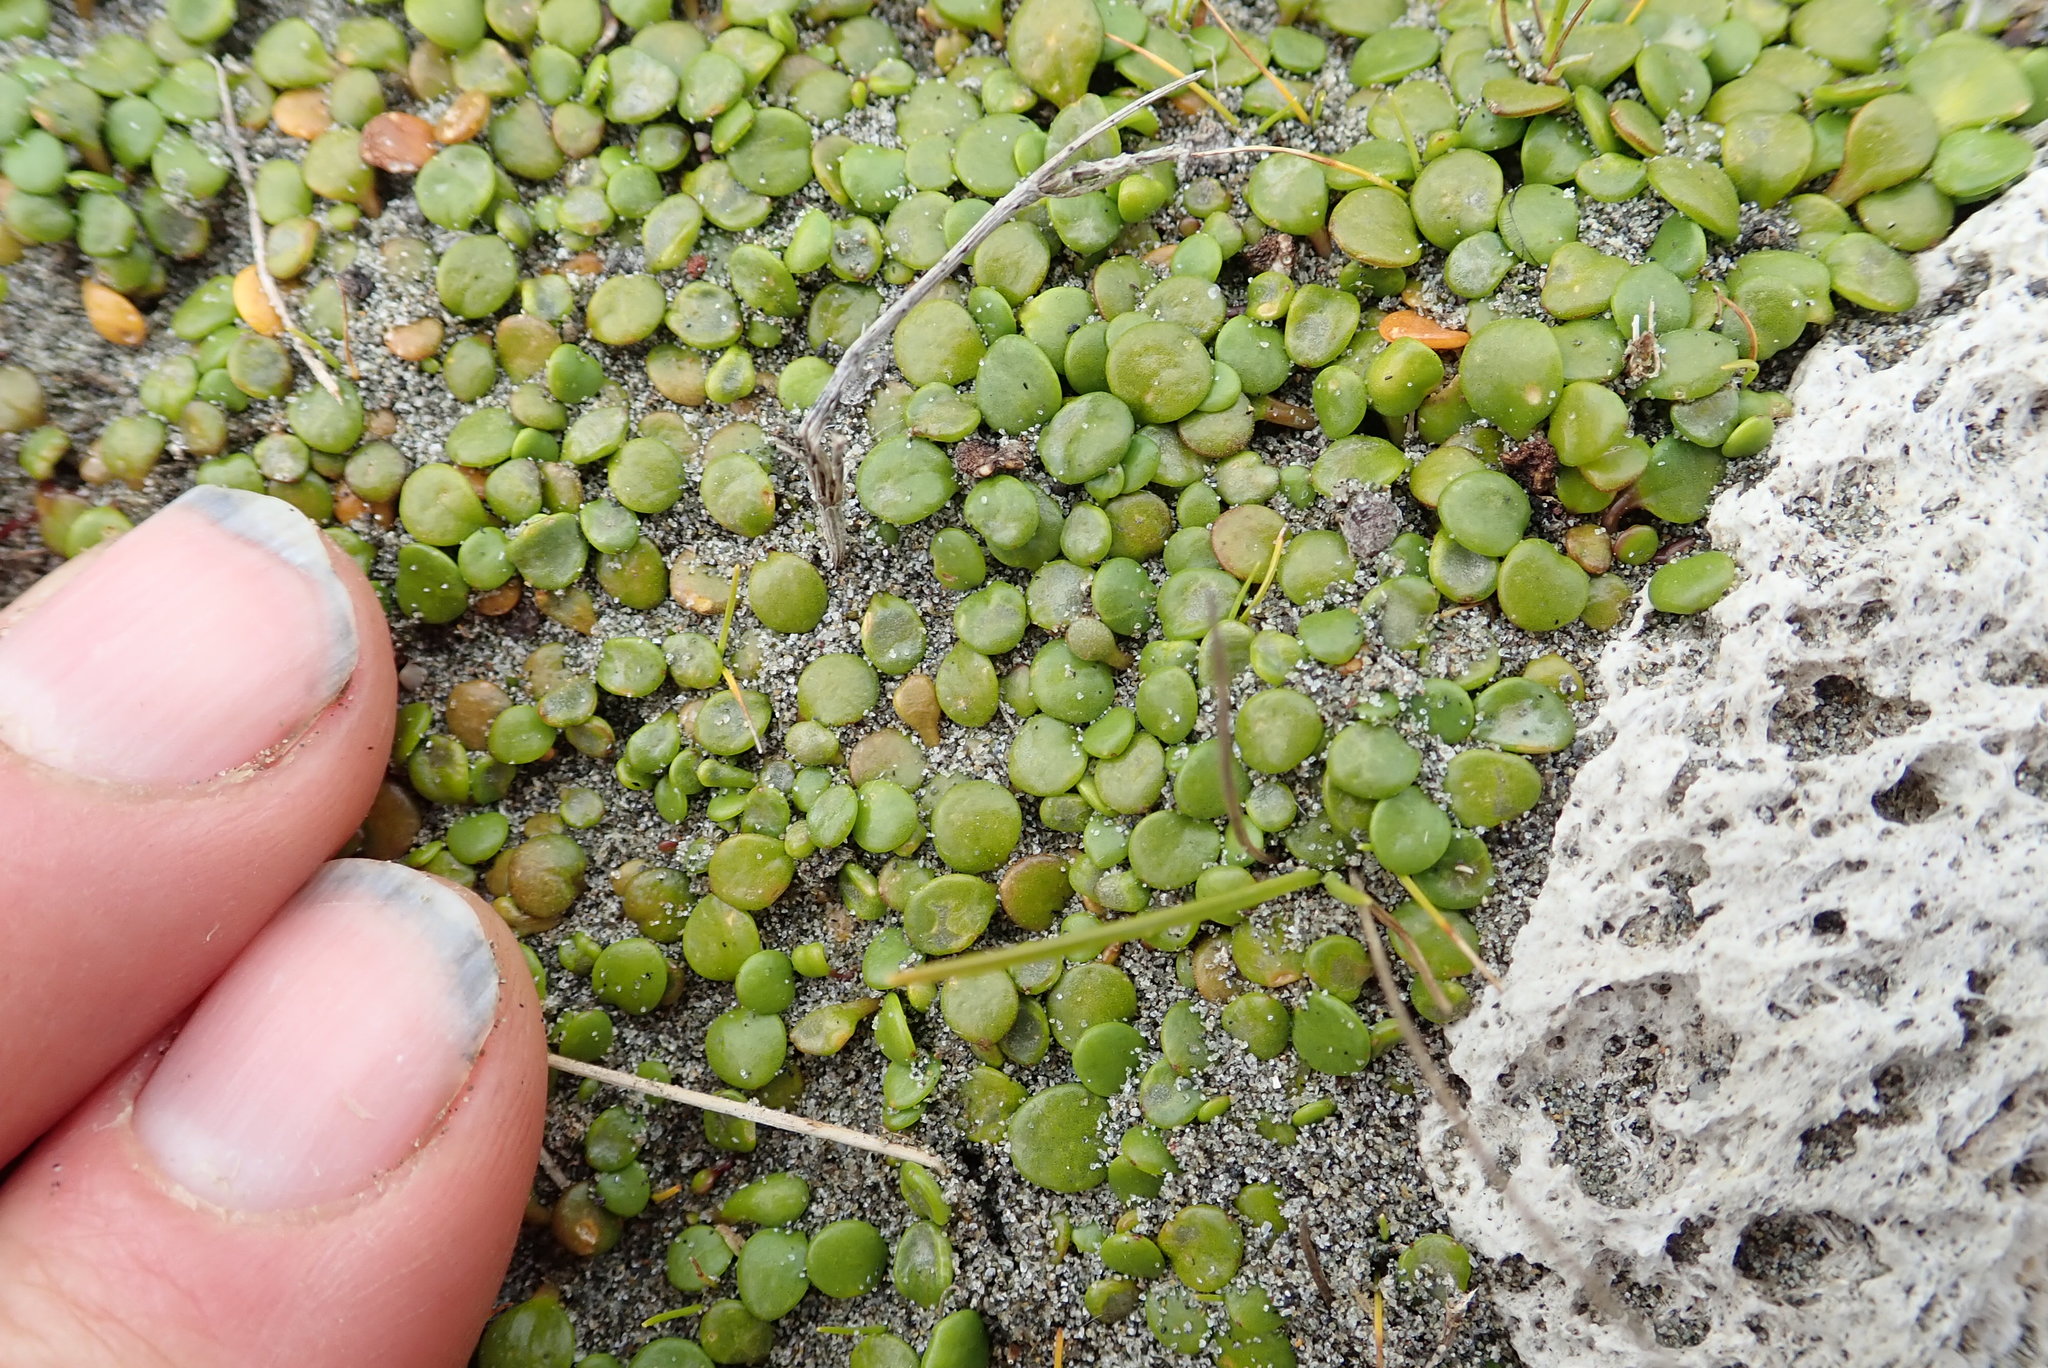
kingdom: Plantae
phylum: Tracheophyta
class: Magnoliopsida
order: Asterales
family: Goodeniaceae
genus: Goodenia
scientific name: Goodenia heenanii
